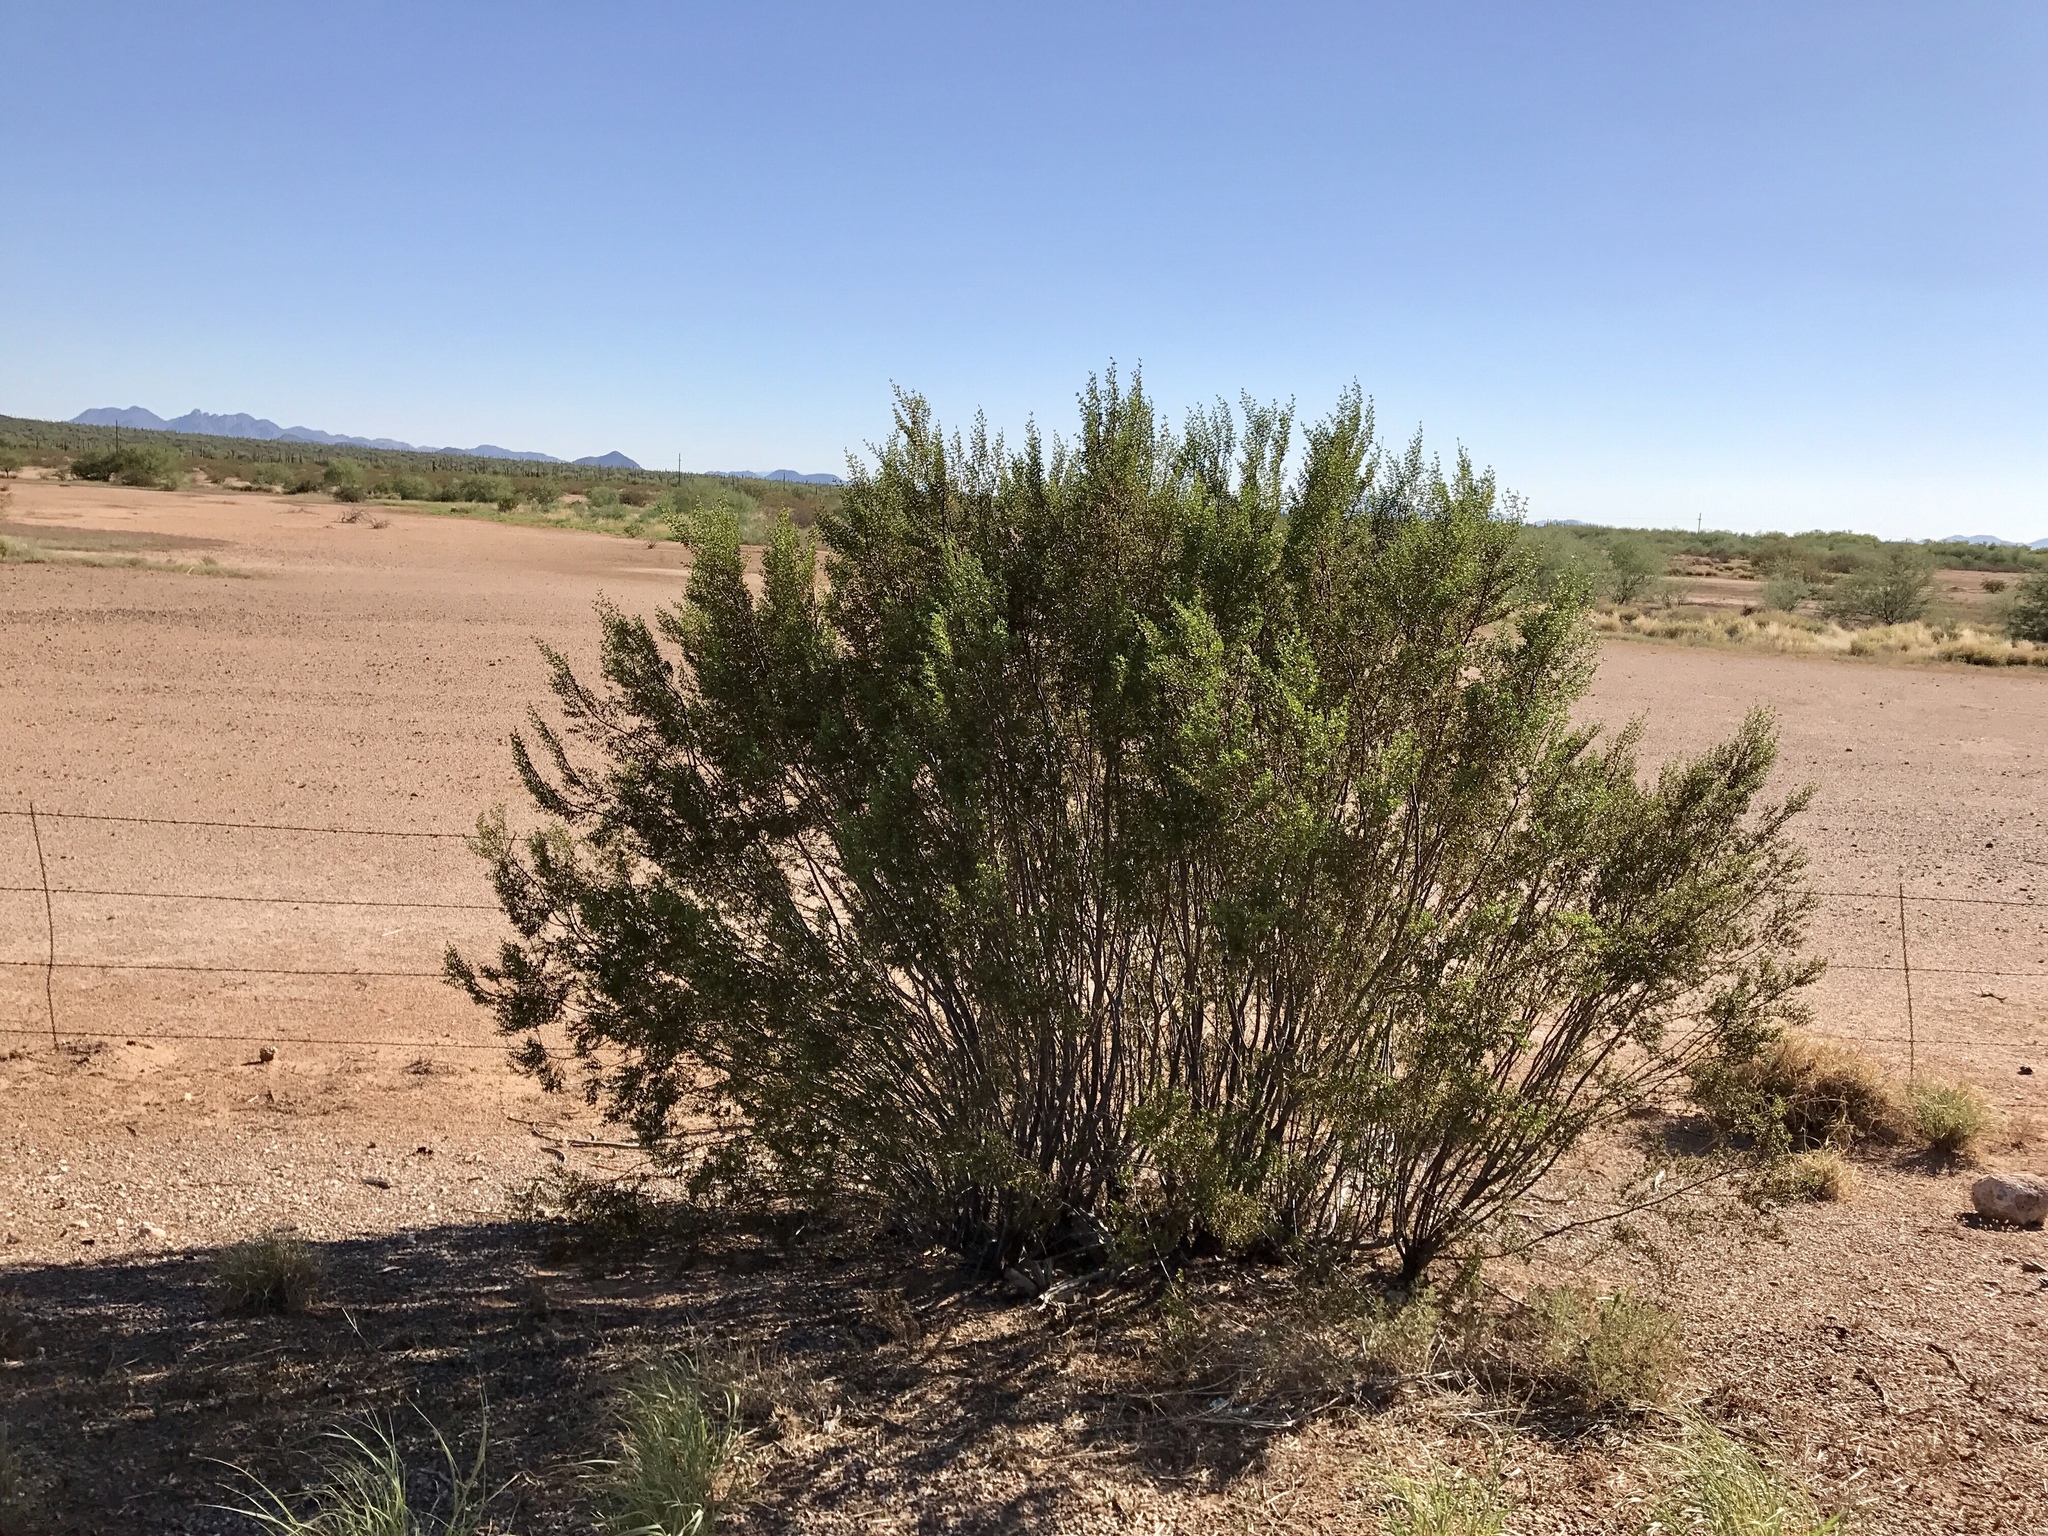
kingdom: Plantae
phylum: Tracheophyta
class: Magnoliopsida
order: Zygophyllales
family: Zygophyllaceae
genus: Larrea
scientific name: Larrea tridentata
